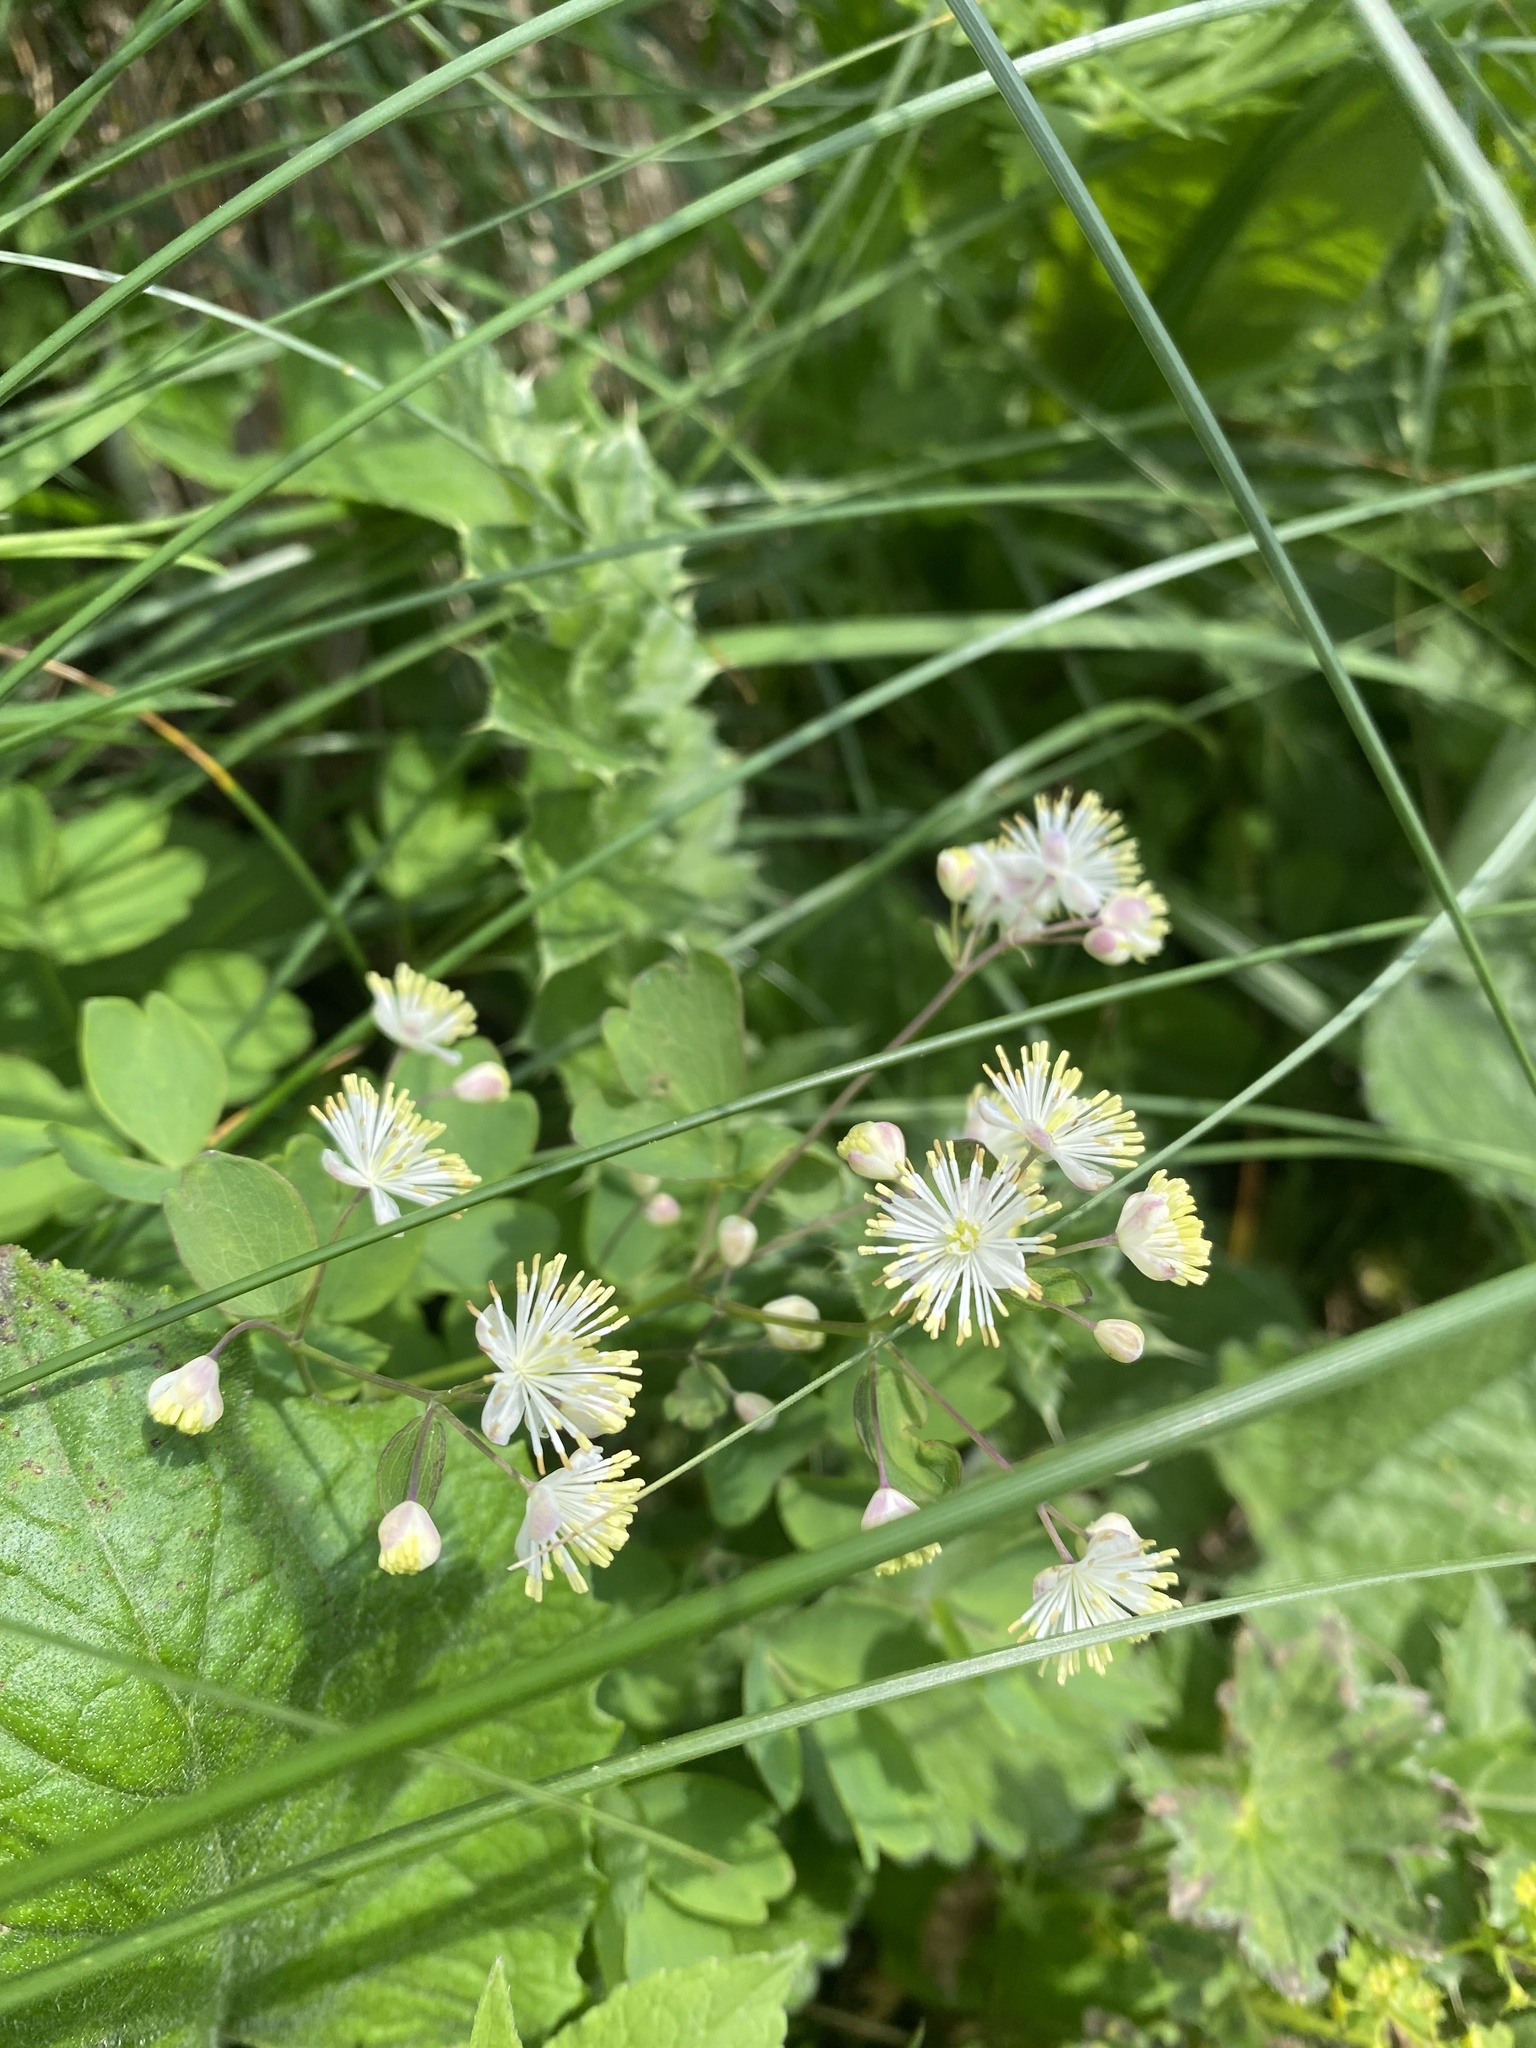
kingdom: Plantae
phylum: Tracheophyta
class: Magnoliopsida
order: Ranunculales
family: Ranunculaceae
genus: Thalictrum
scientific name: Thalictrum aquilegiifolium
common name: French meadow-rue
